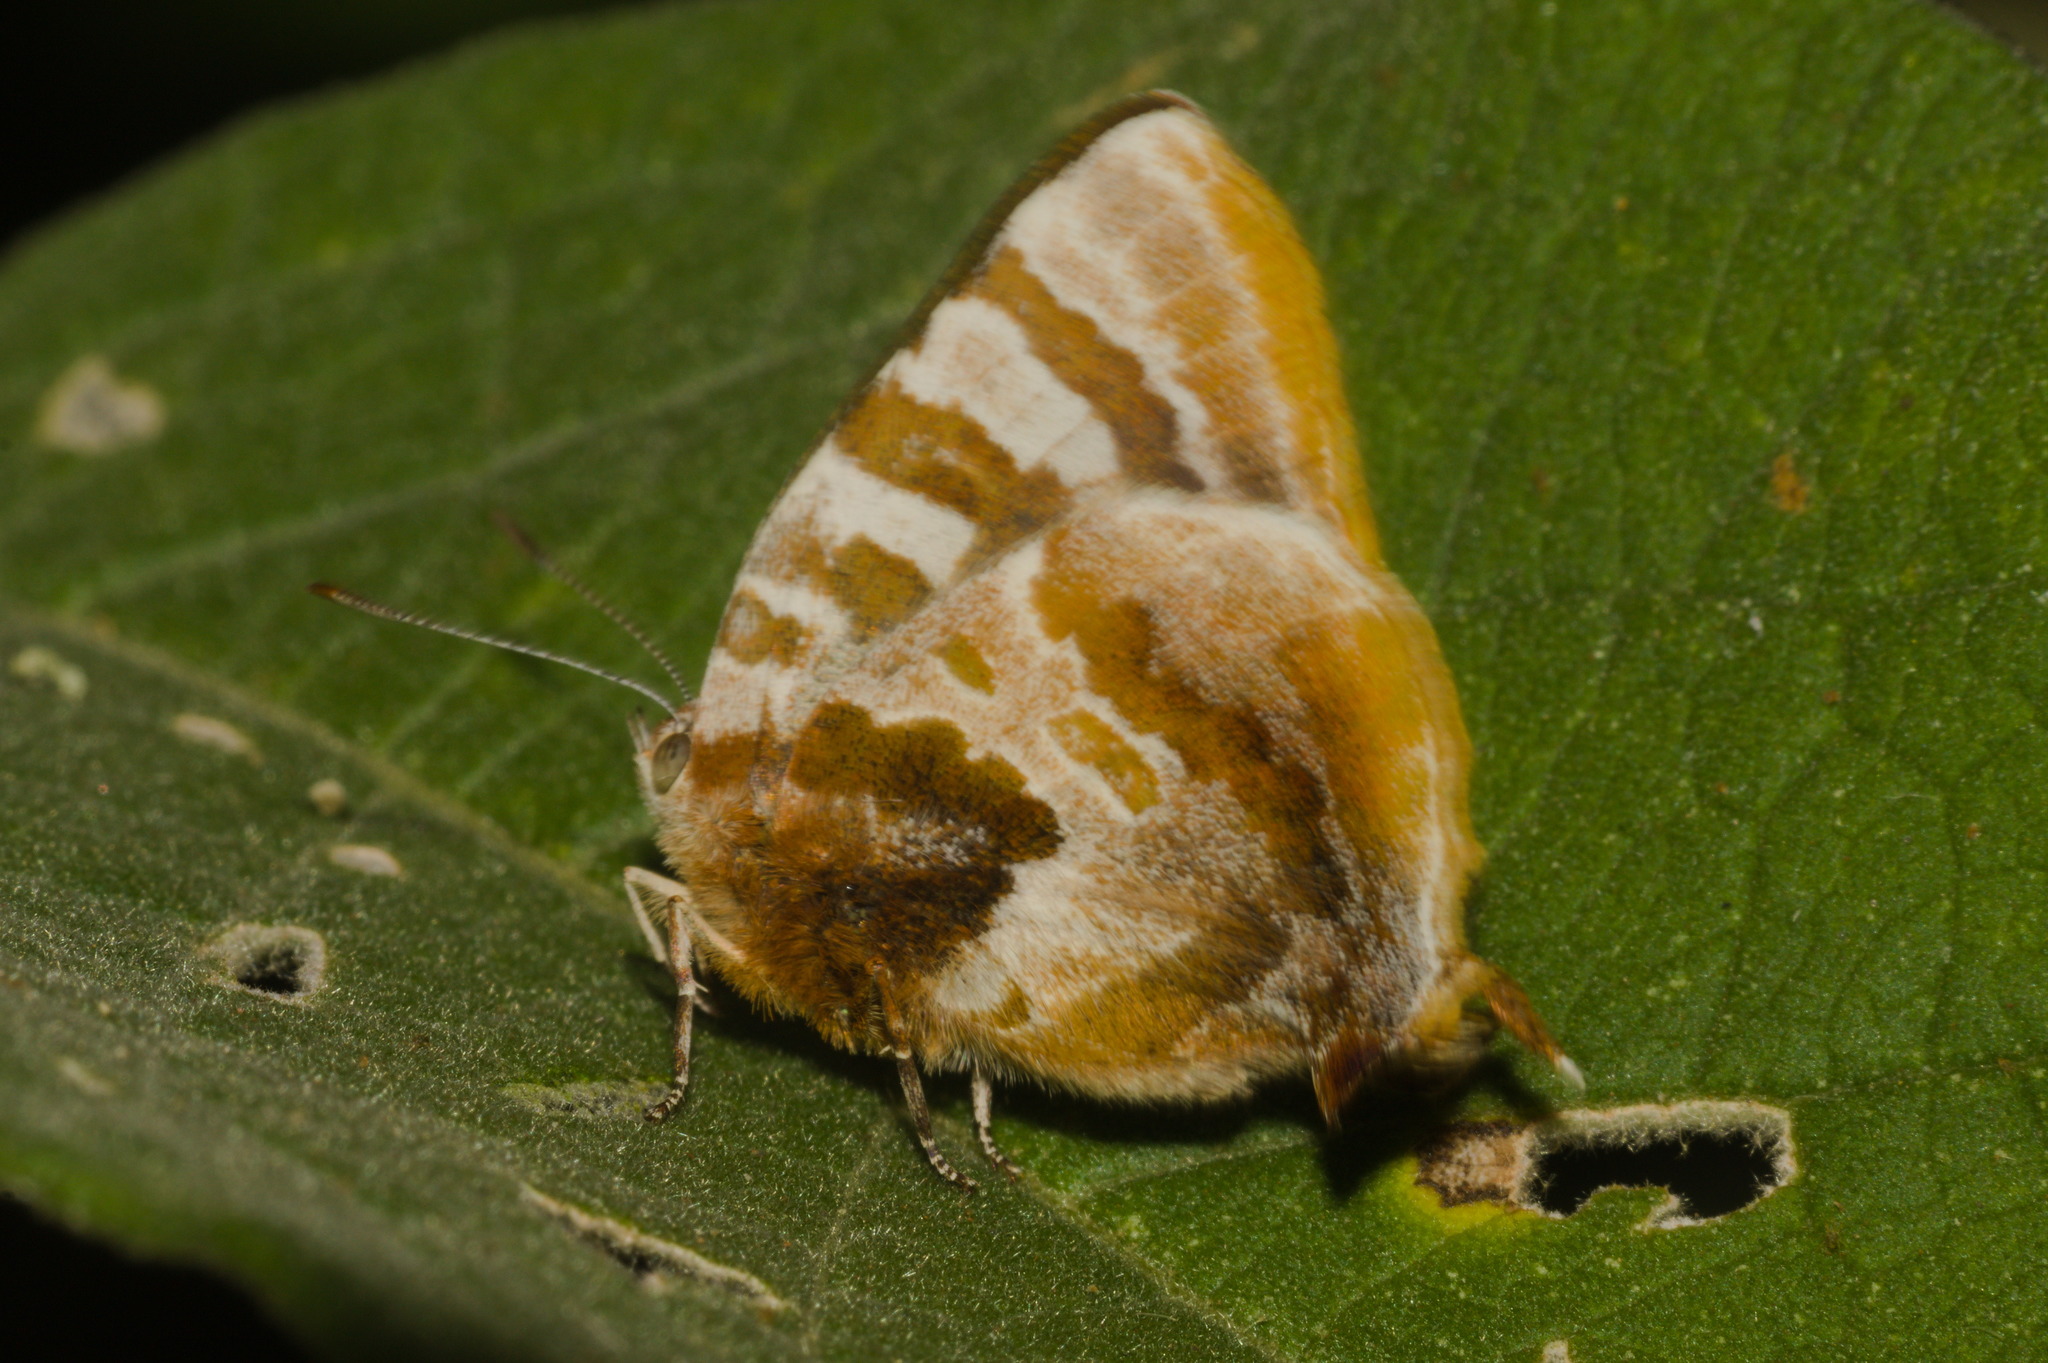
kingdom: Animalia
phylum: Arthropoda
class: Insecta
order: Lepidoptera
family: Lycaenidae
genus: Arawacus
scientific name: Arawacus ellida
